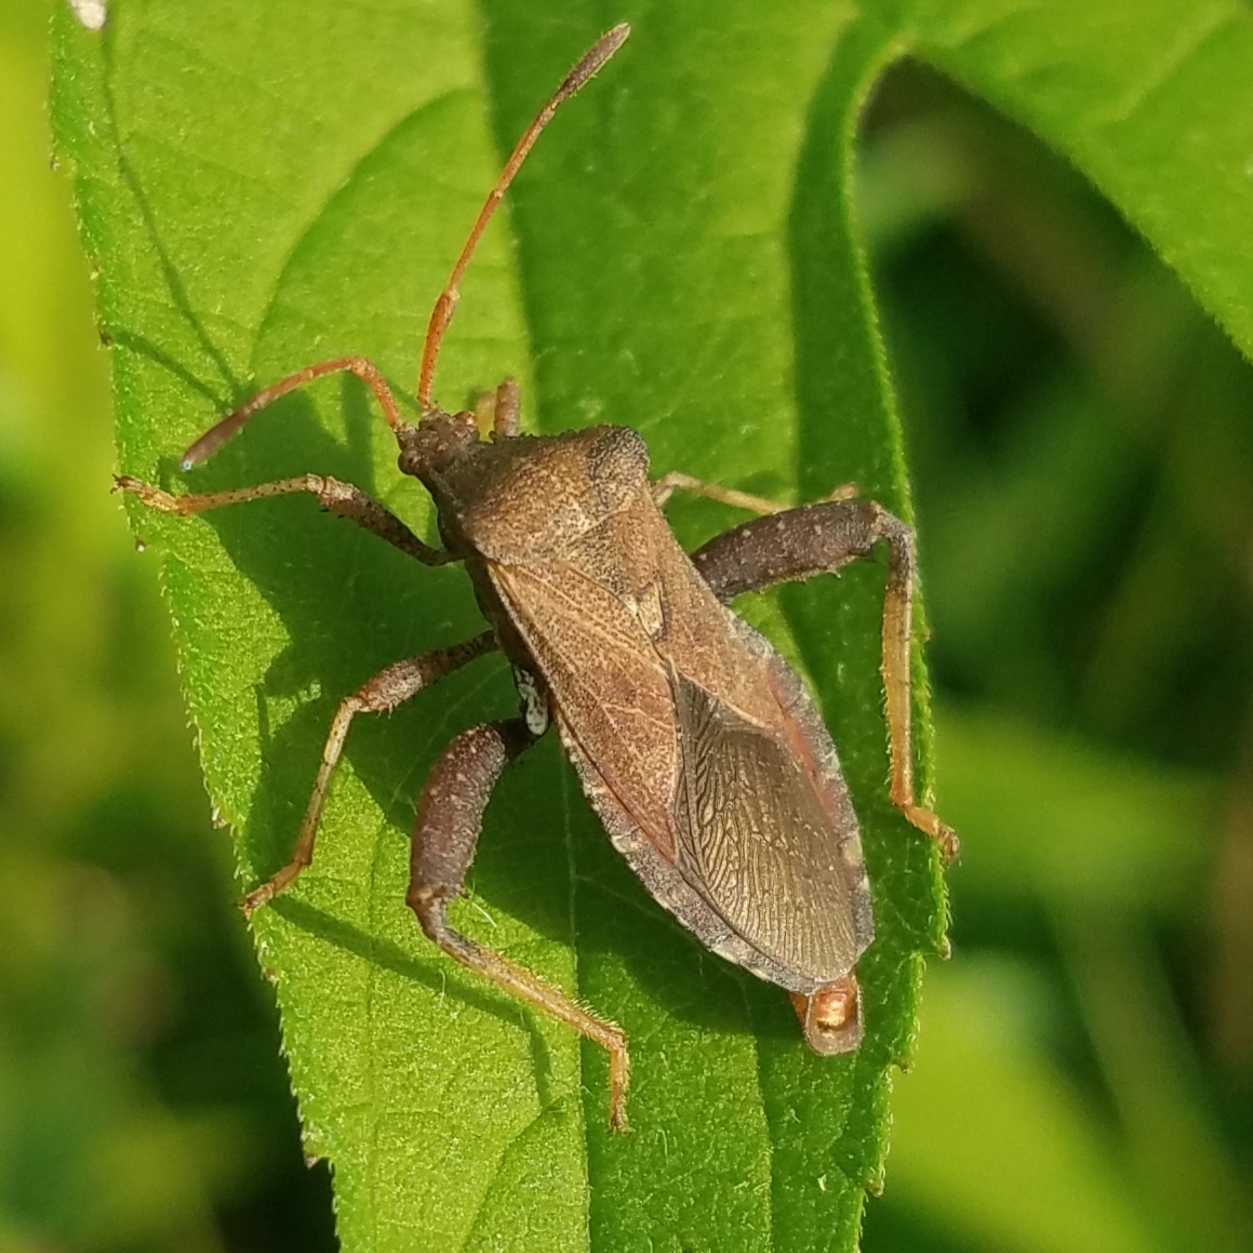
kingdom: Animalia
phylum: Arthropoda
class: Insecta
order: Hemiptera
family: Coreidae
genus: Euthochtha
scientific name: Euthochtha galeator
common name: Helmeted squash bug
